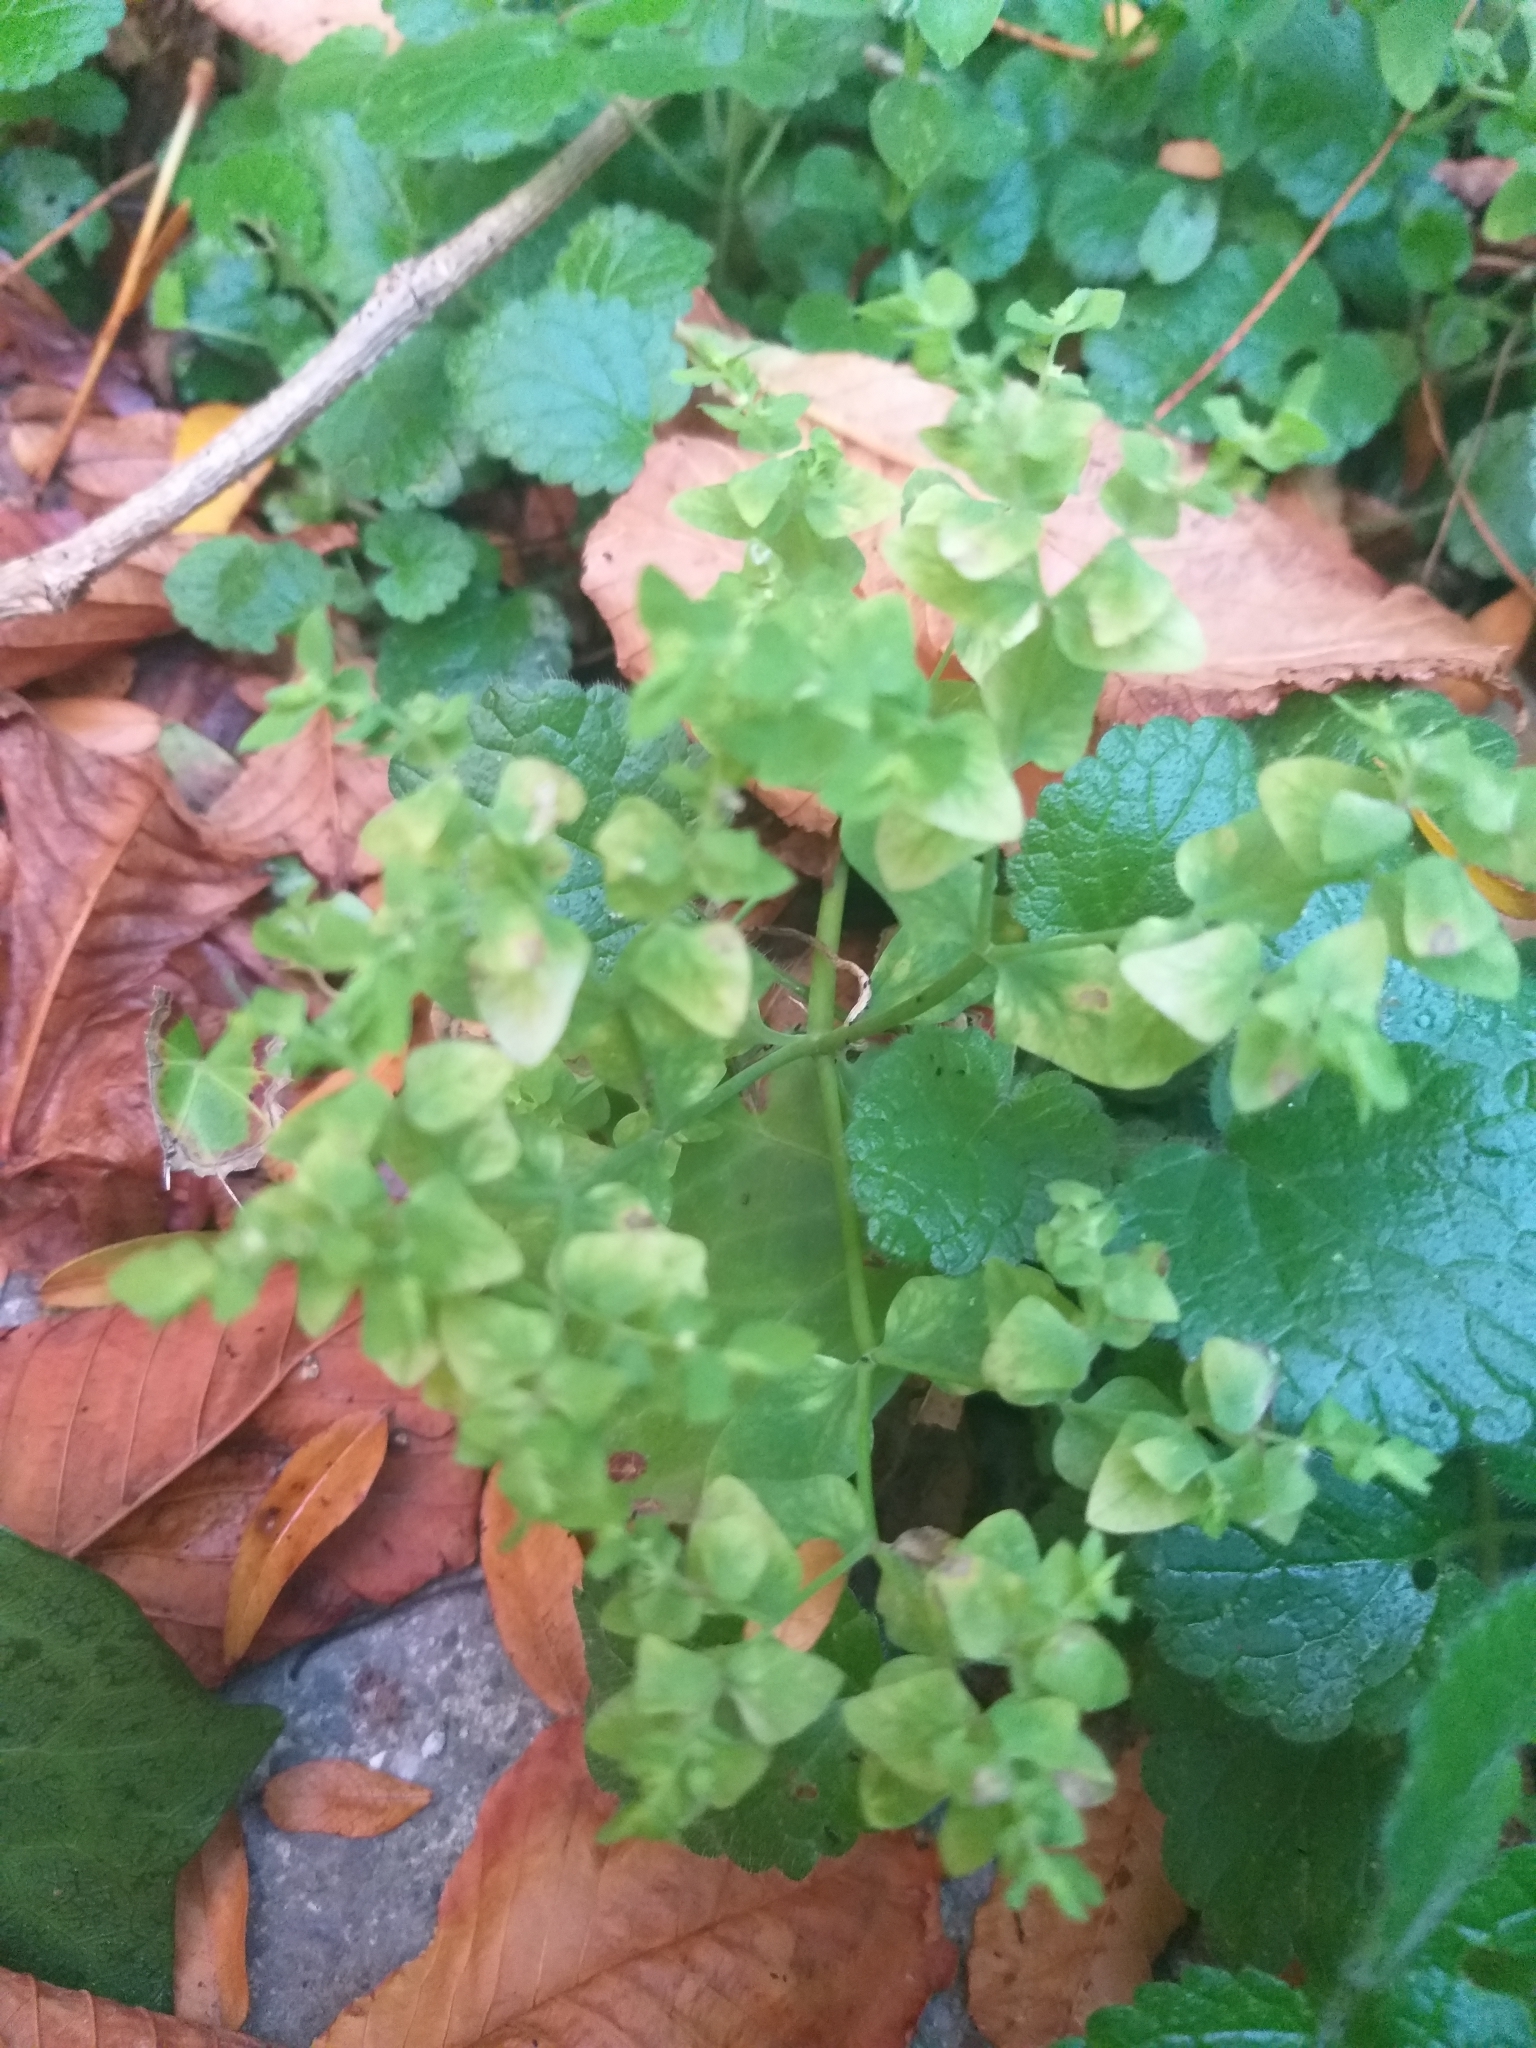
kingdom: Plantae
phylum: Tracheophyta
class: Magnoliopsida
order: Malpighiales
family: Euphorbiaceae
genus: Euphorbia
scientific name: Euphorbia peplus
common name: Petty spurge
